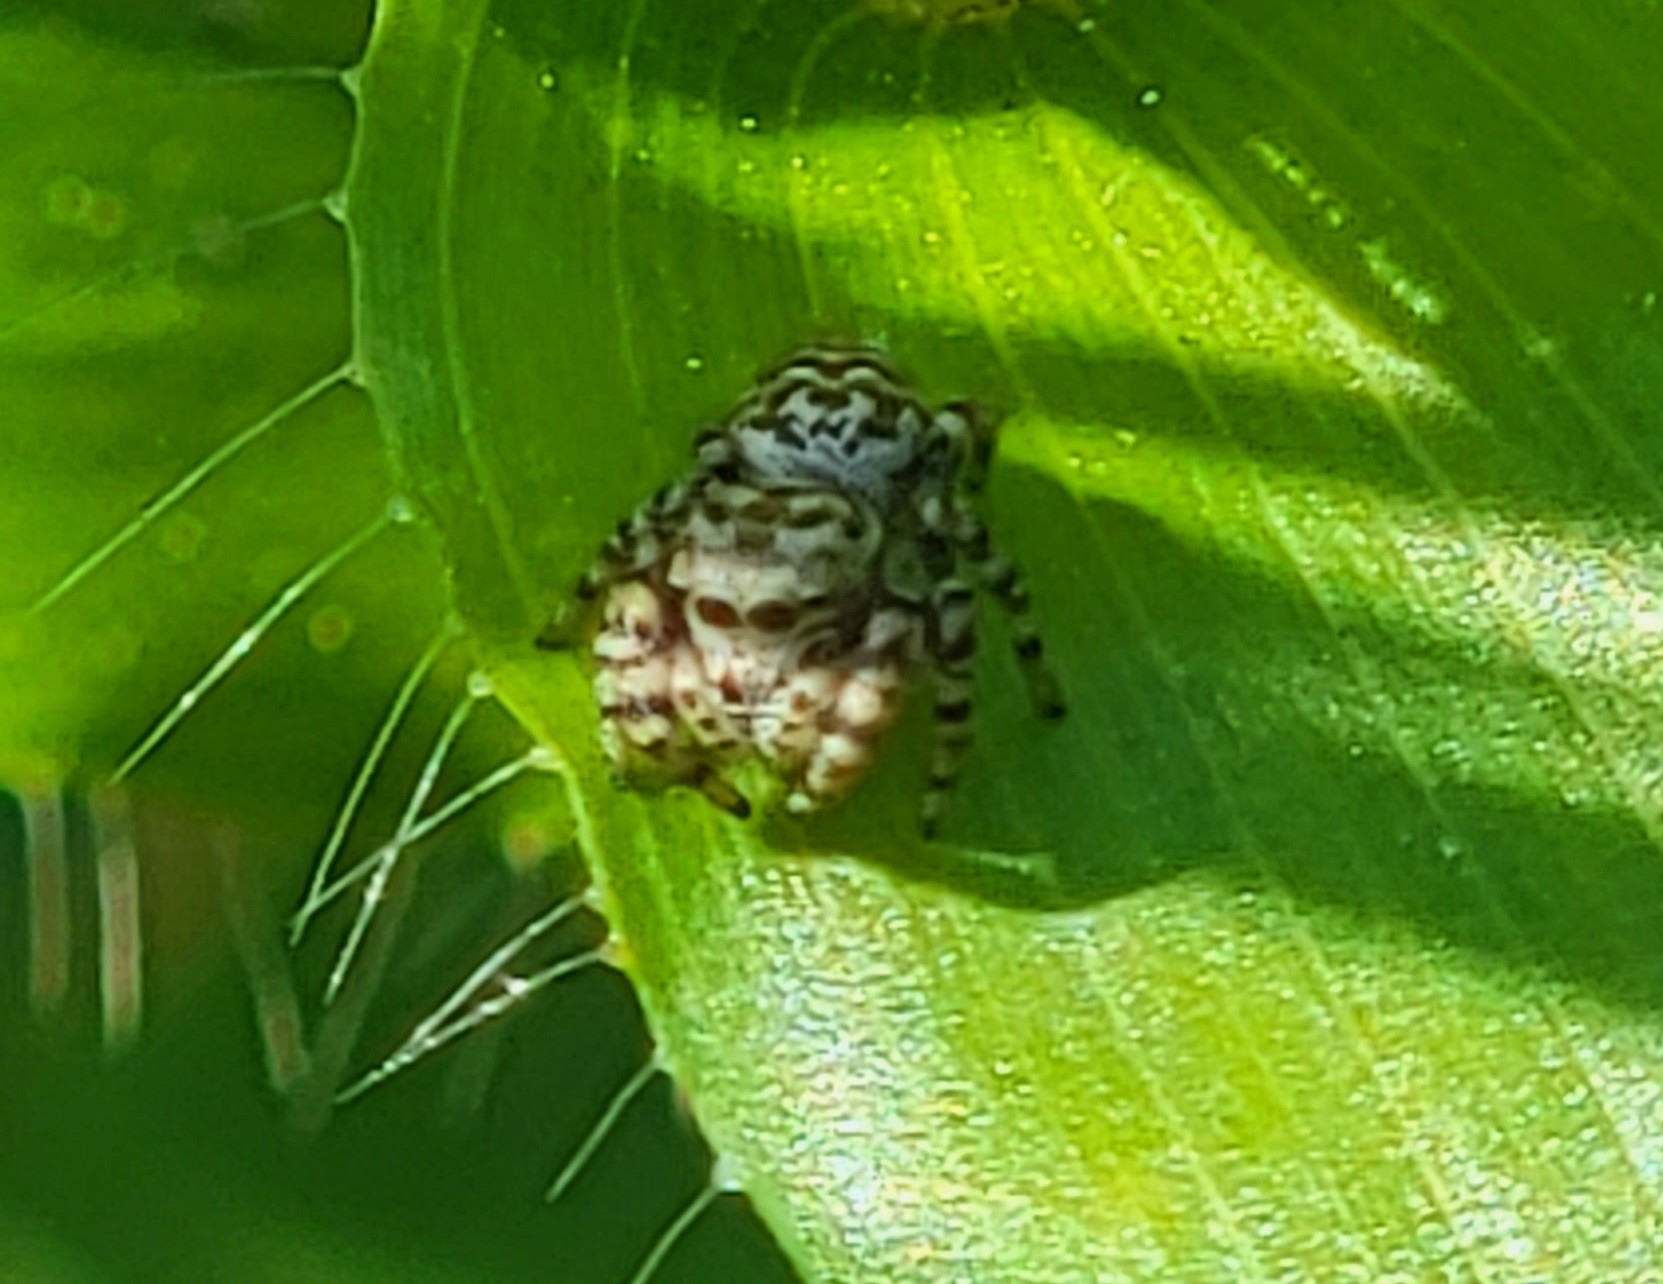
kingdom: Animalia
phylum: Arthropoda
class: Arachnida
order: Araneae
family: Salticidae
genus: Pelegrina
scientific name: Pelegrina galathea
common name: Jumping spiders
